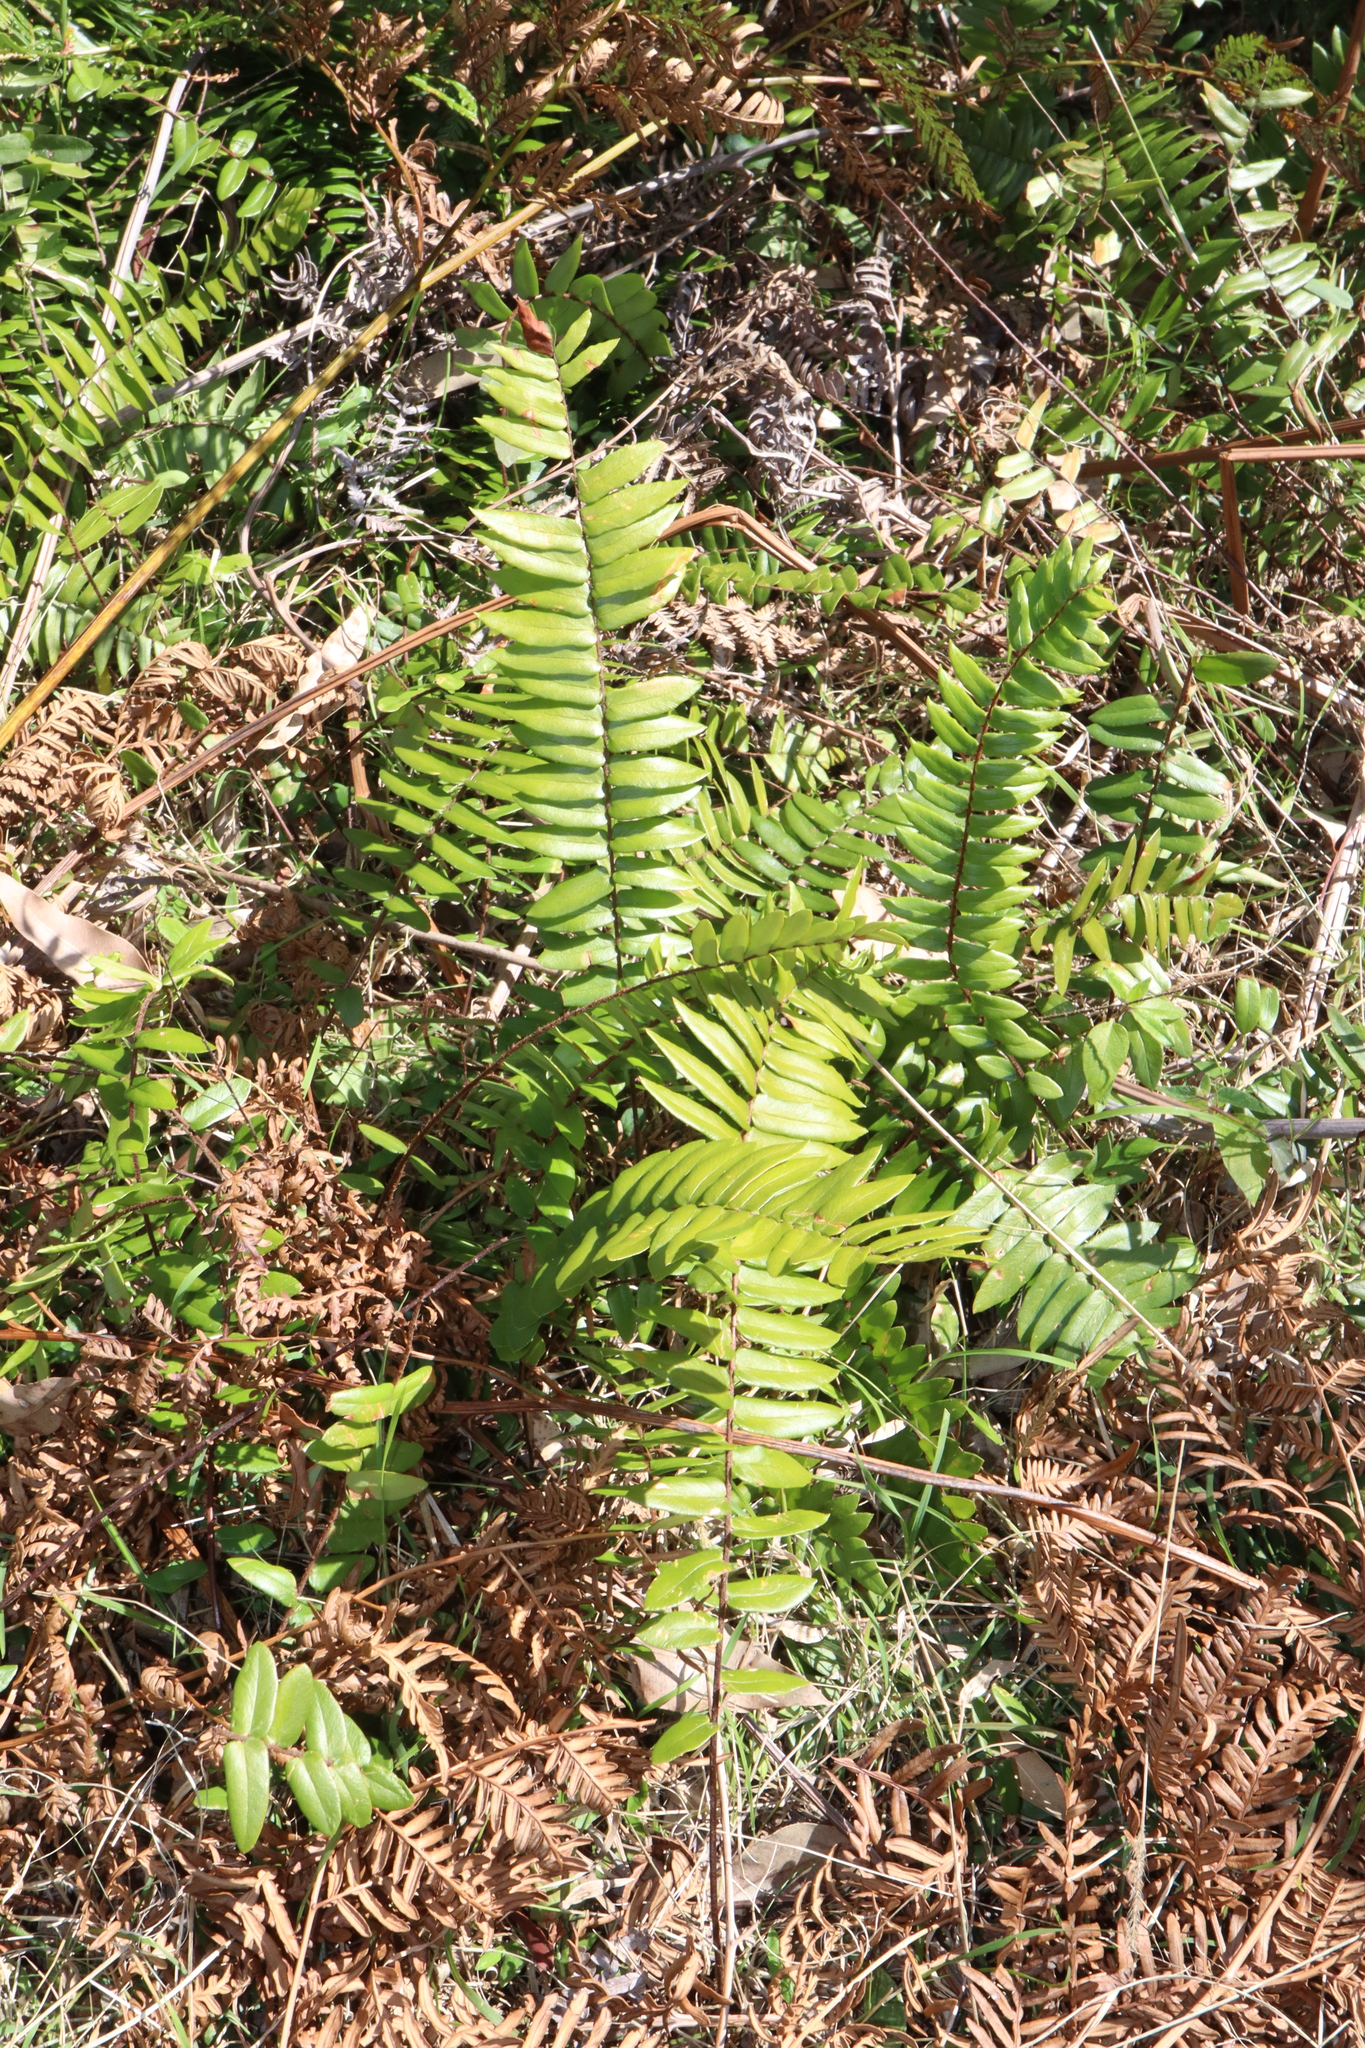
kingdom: Plantae
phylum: Tracheophyta
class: Polypodiopsida
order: Polypodiales
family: Pteridaceae
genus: Pellaea
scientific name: Pellaea falcata
